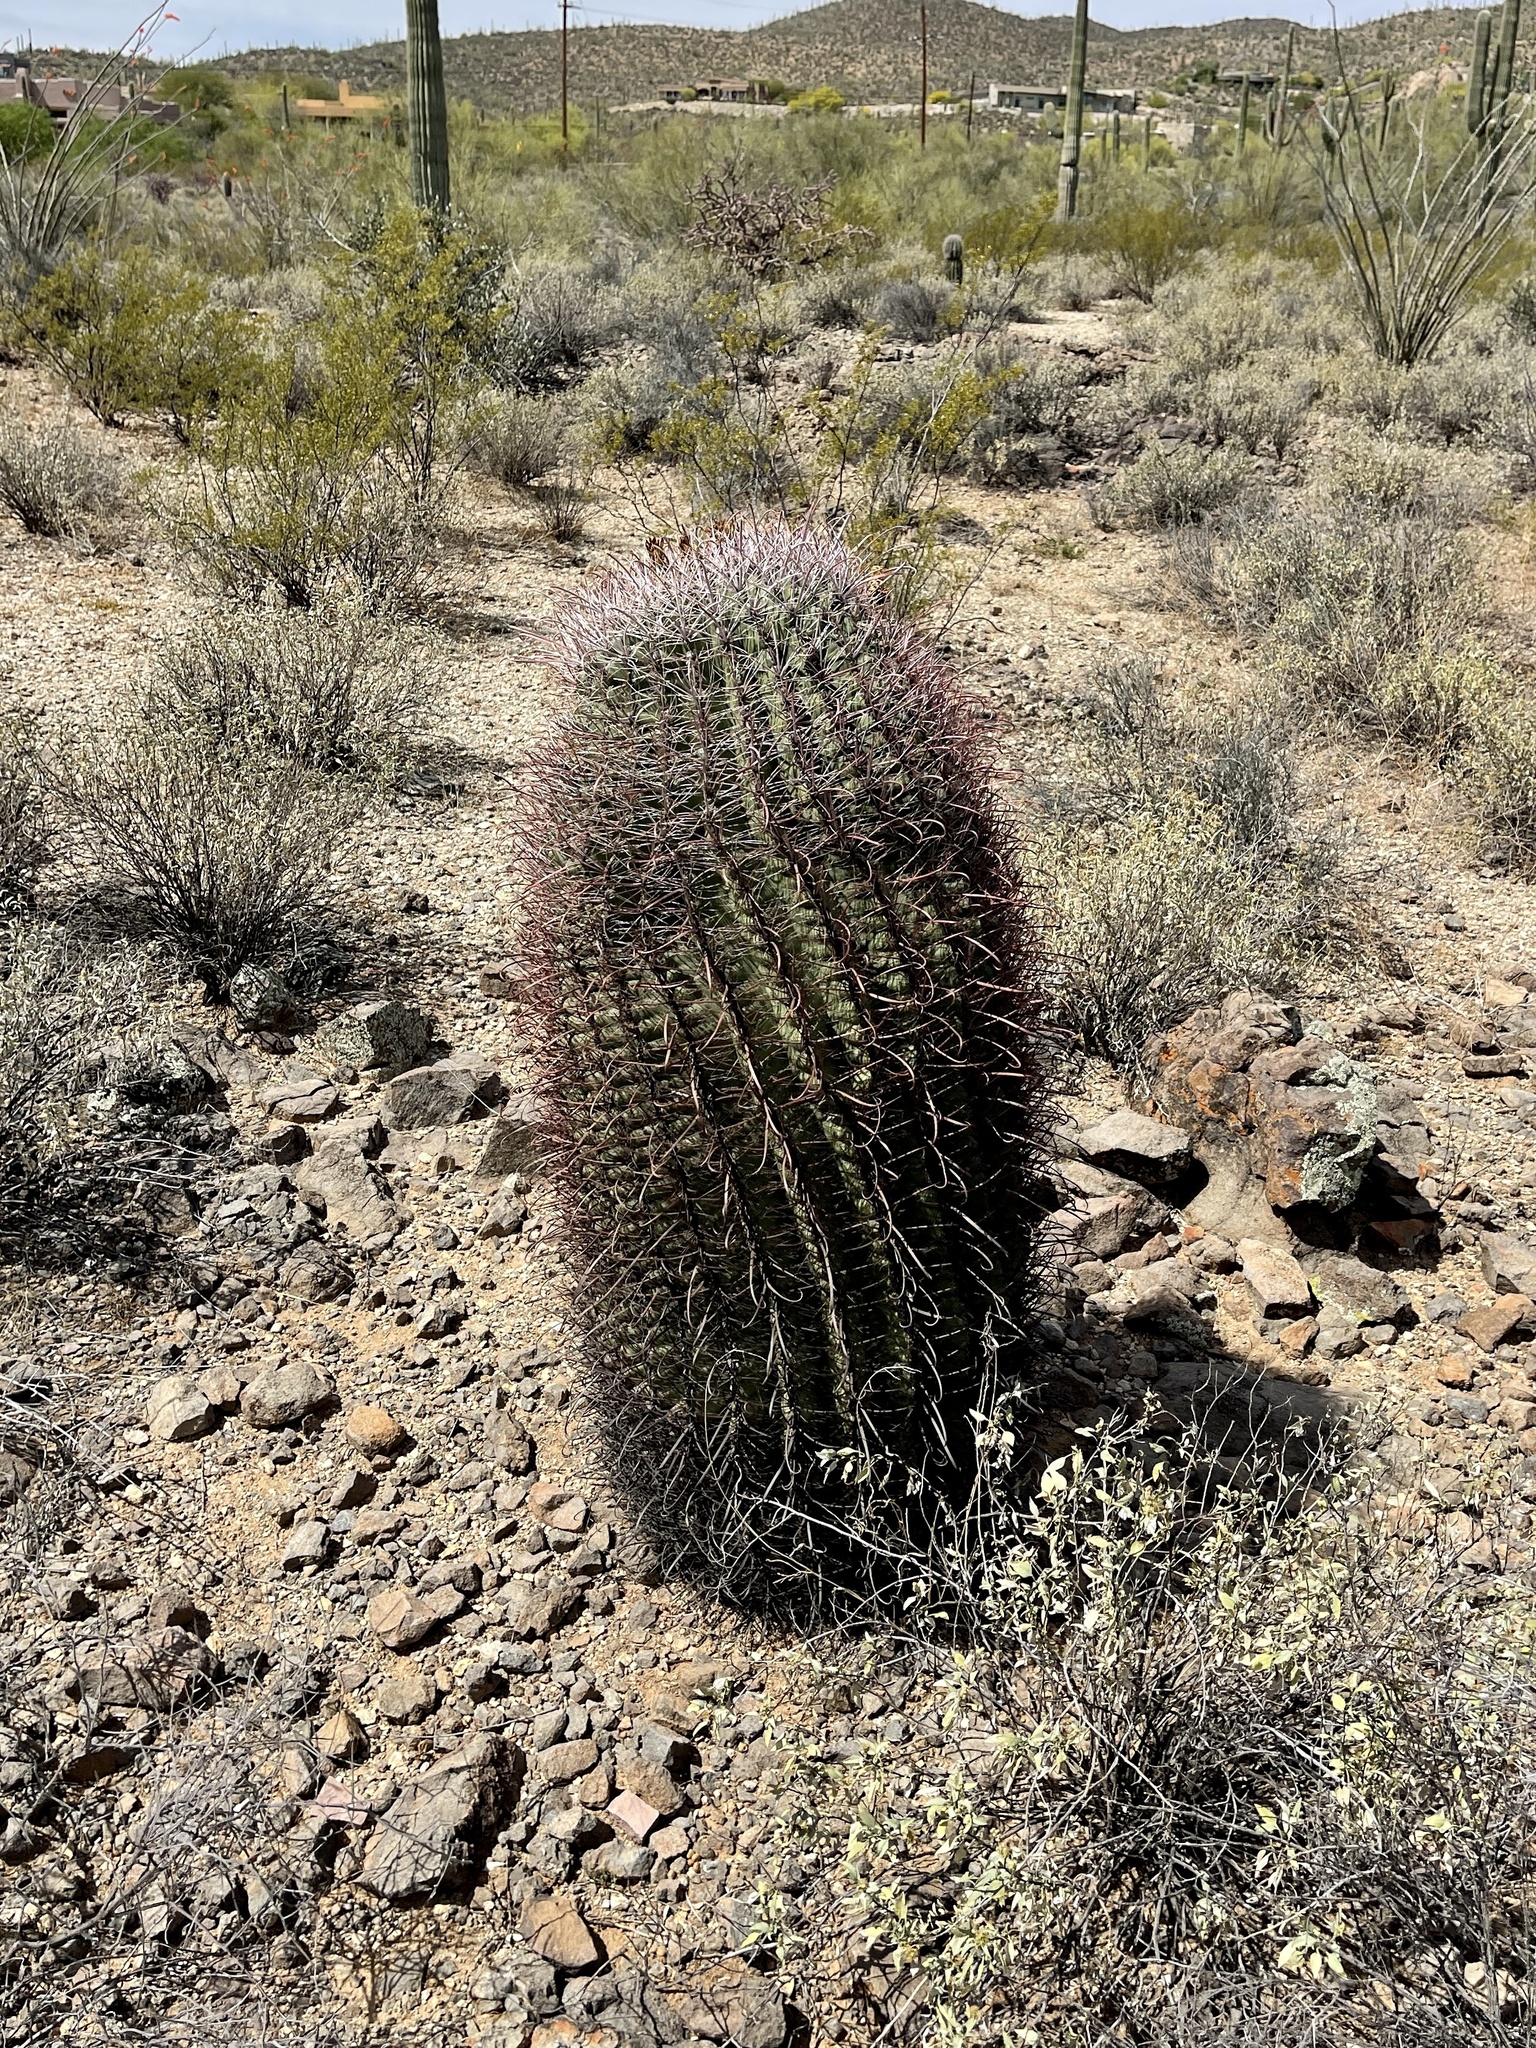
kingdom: Plantae
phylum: Tracheophyta
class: Magnoliopsida
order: Caryophyllales
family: Cactaceae
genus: Ferocactus
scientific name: Ferocactus wislizeni
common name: Candy barrel cactus
